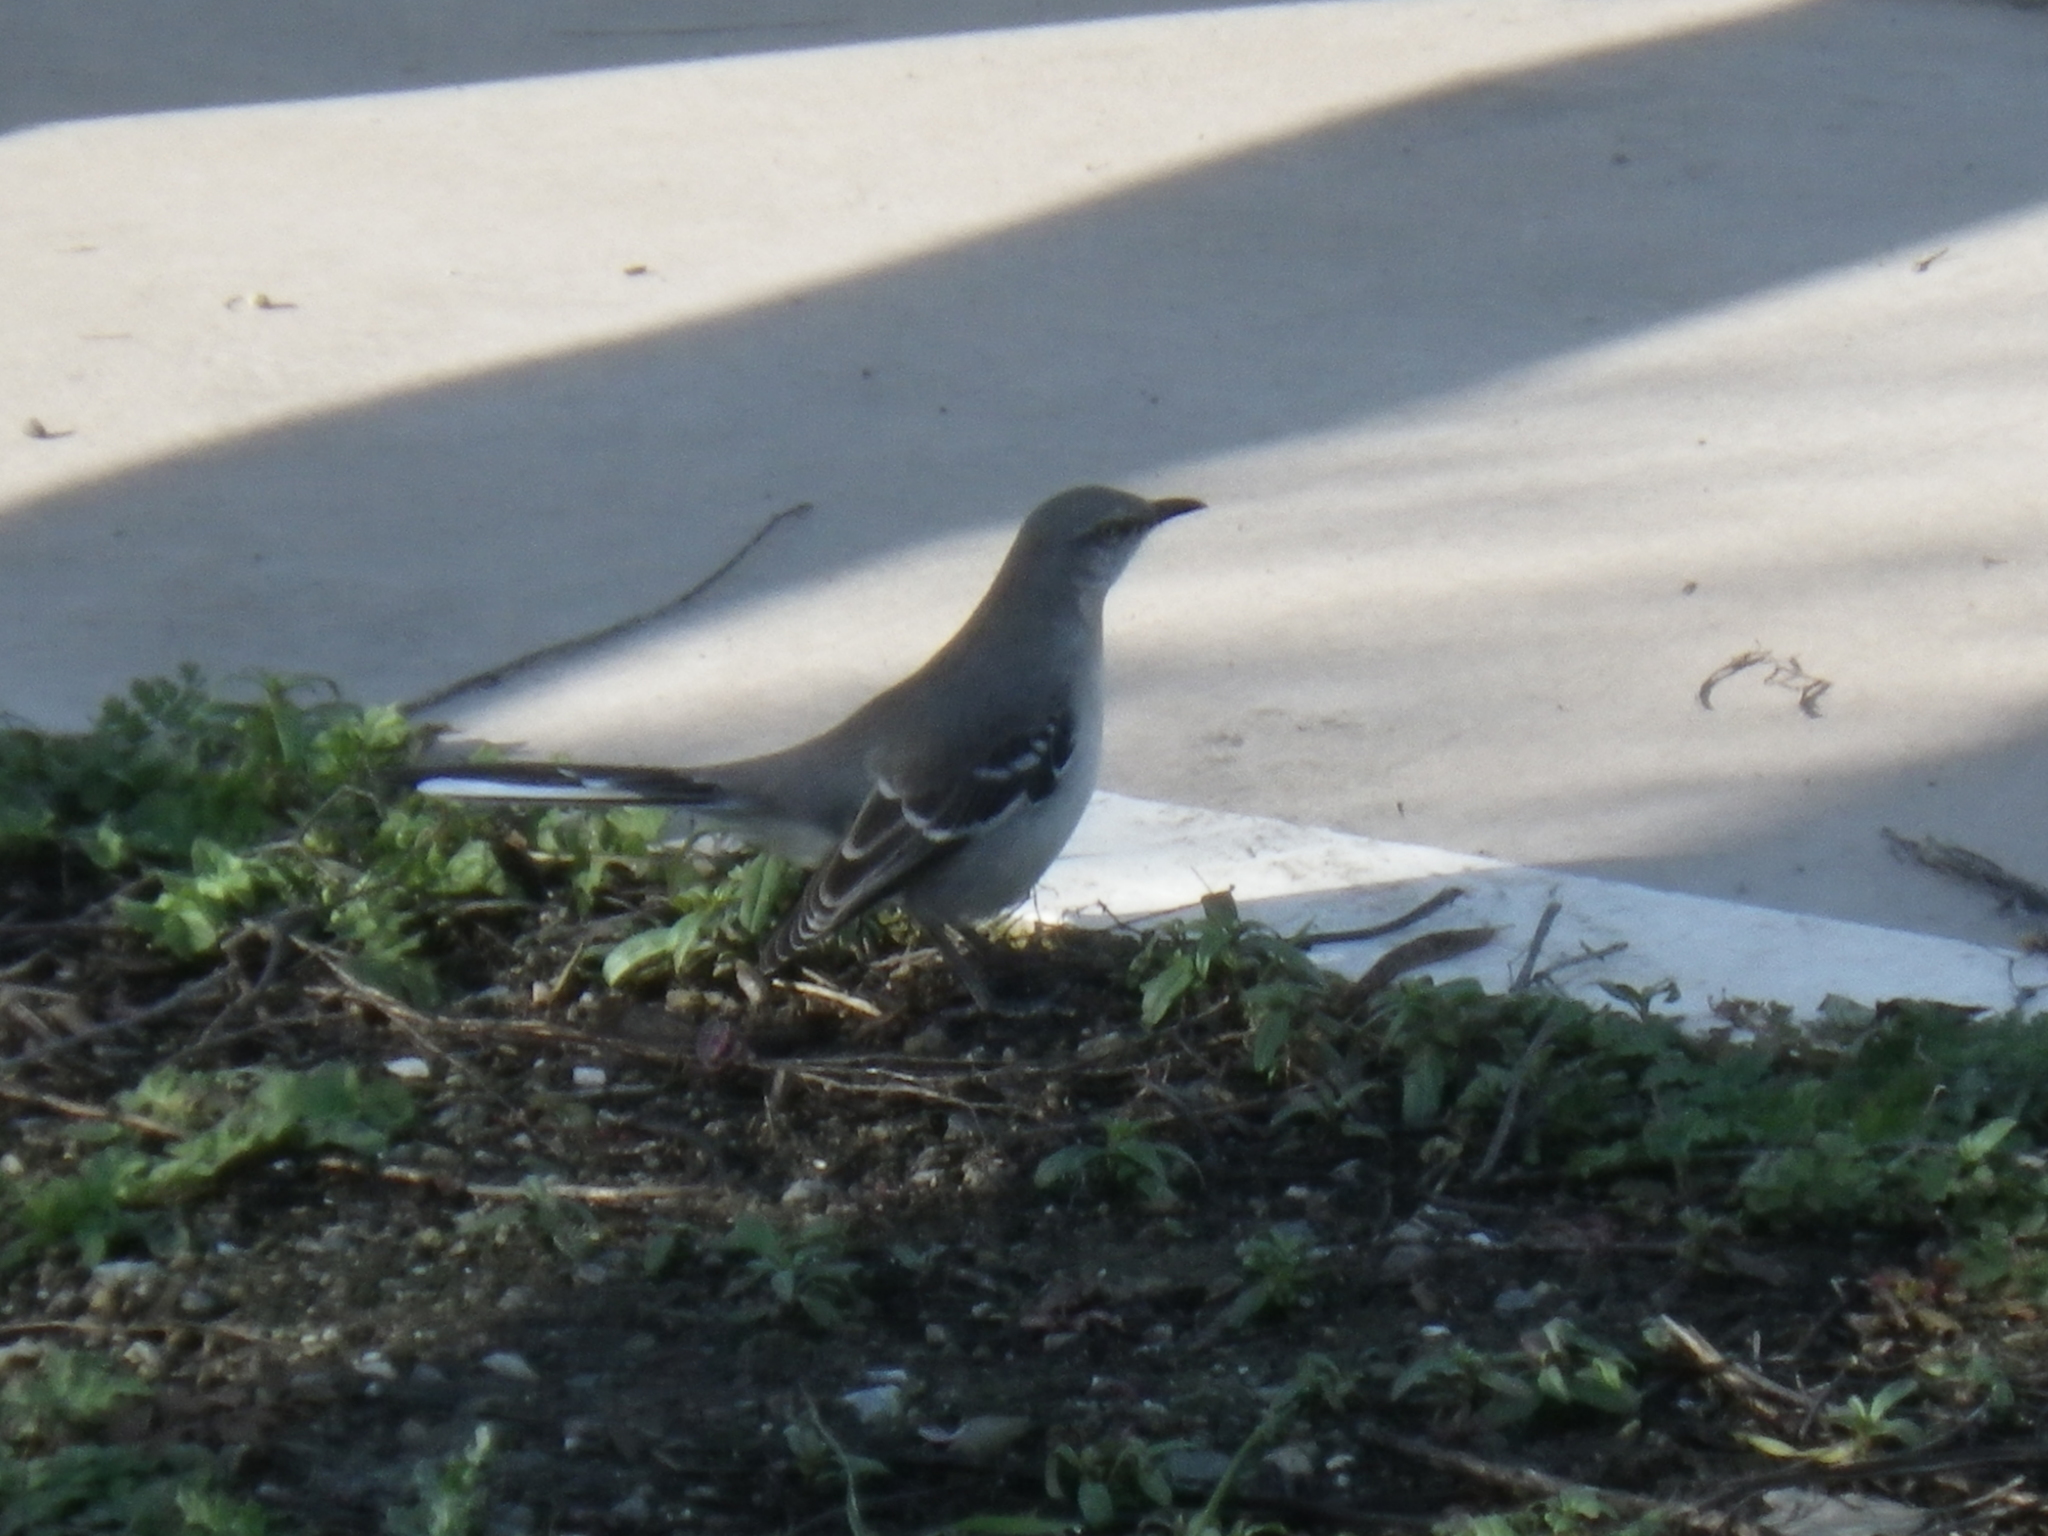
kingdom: Animalia
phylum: Chordata
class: Aves
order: Passeriformes
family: Mimidae
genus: Mimus
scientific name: Mimus polyglottos
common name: Northern mockingbird
